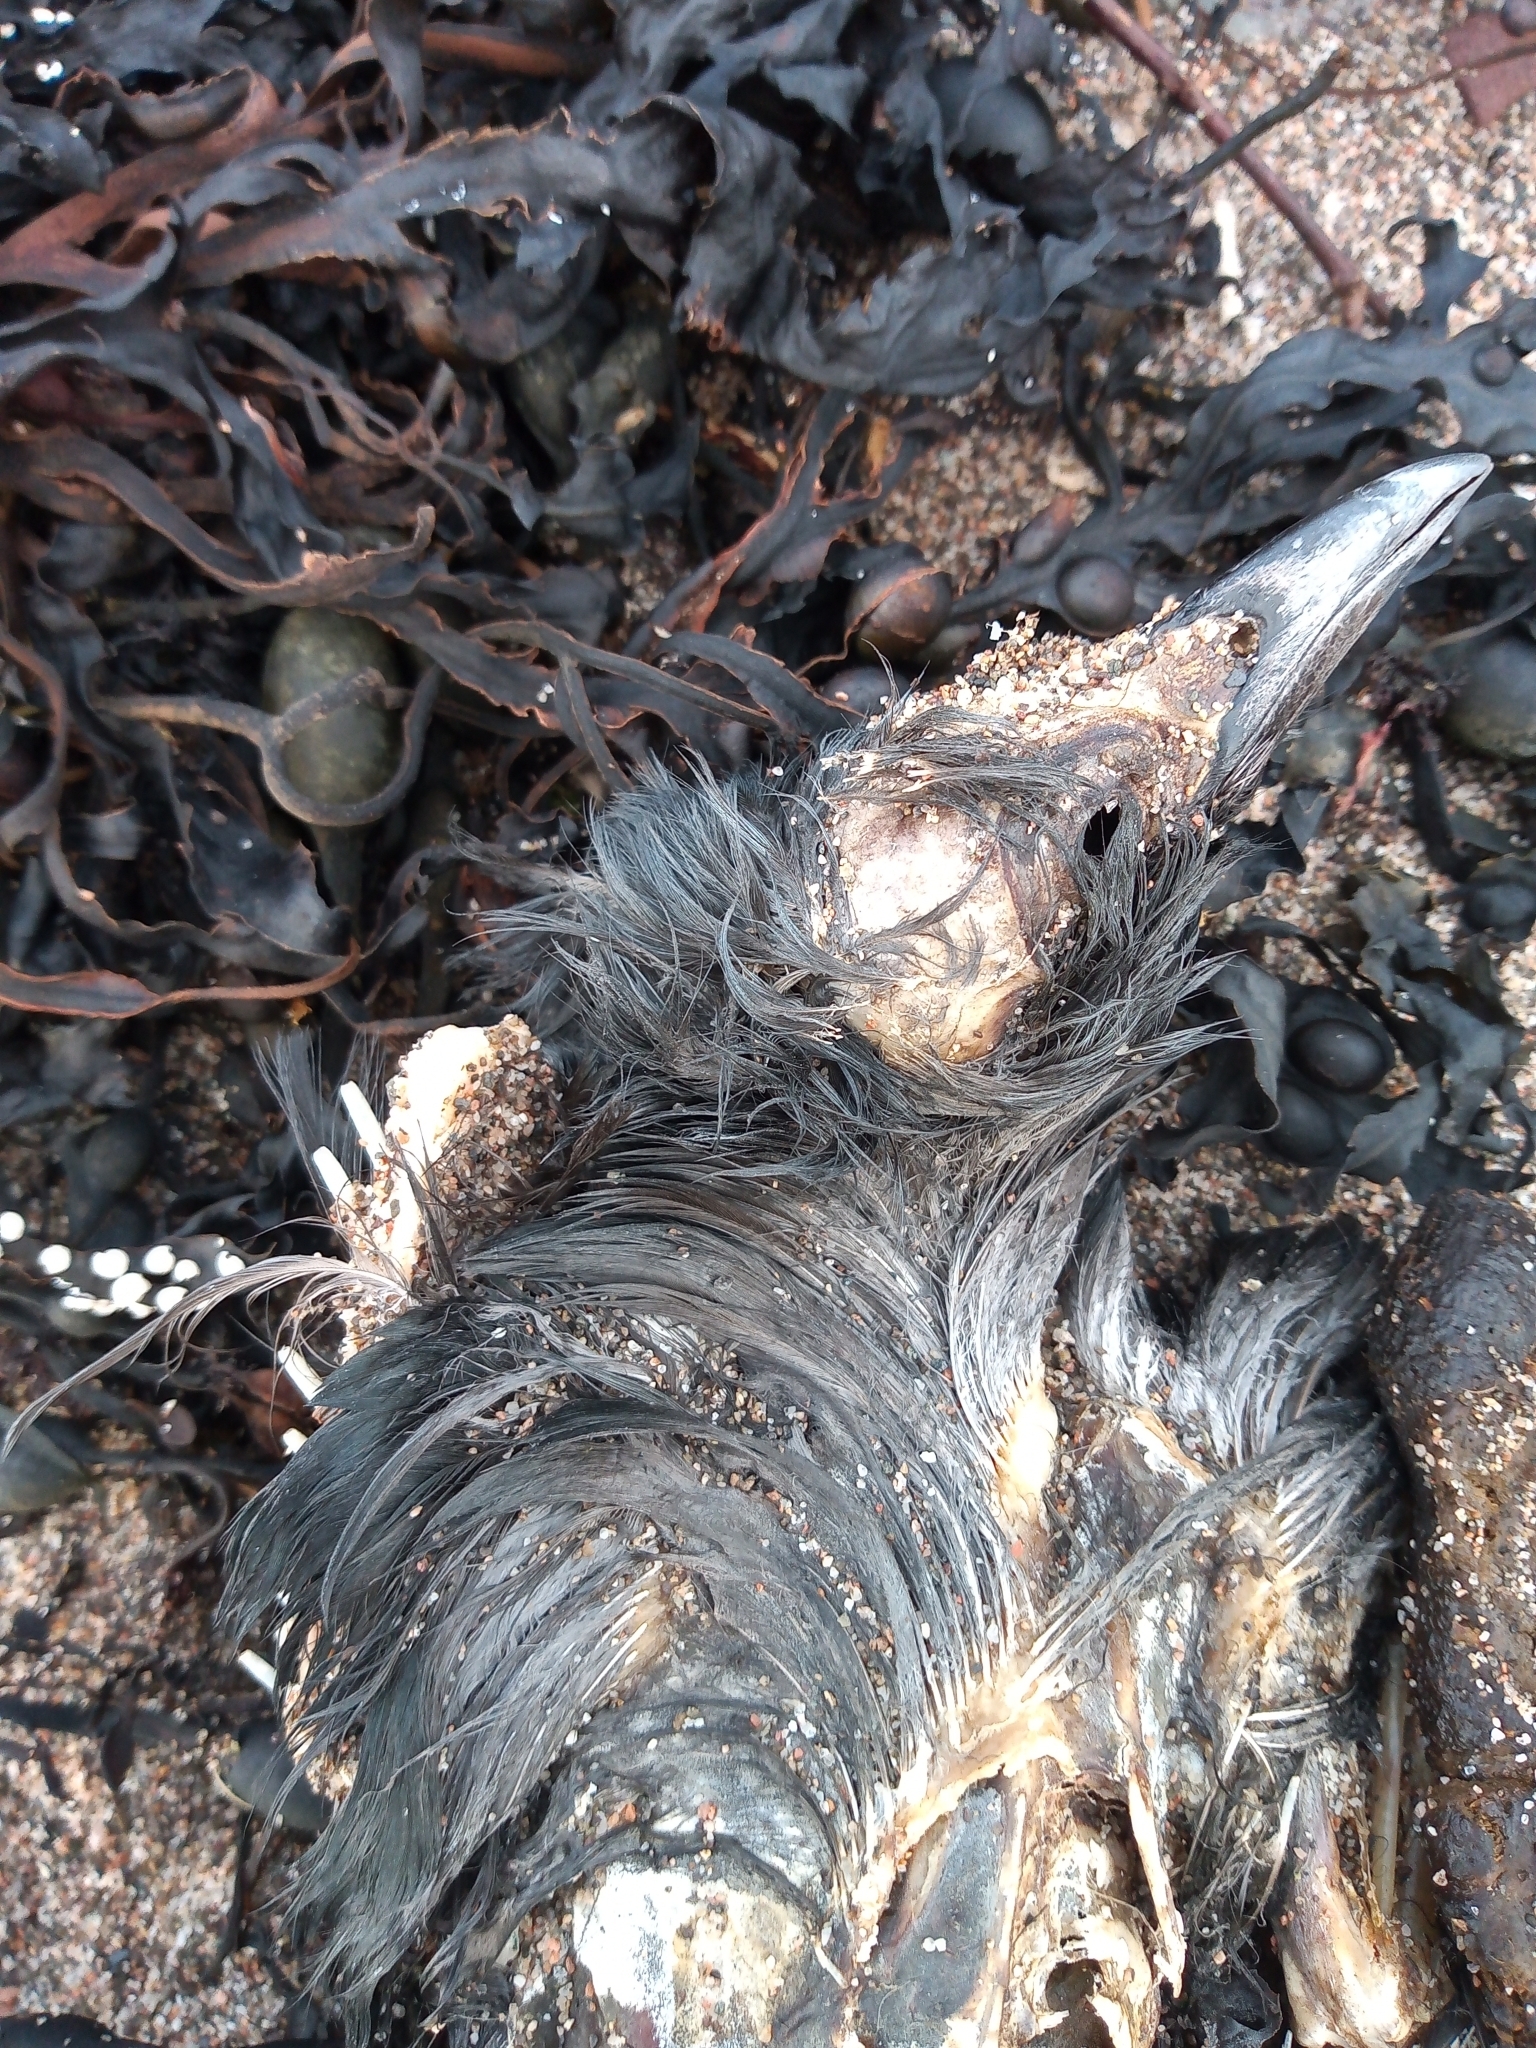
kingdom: Animalia
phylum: Chordata
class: Aves
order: Passeriformes
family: Corvidae
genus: Corvus
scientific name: Corvus cornix
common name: Hooded crow
